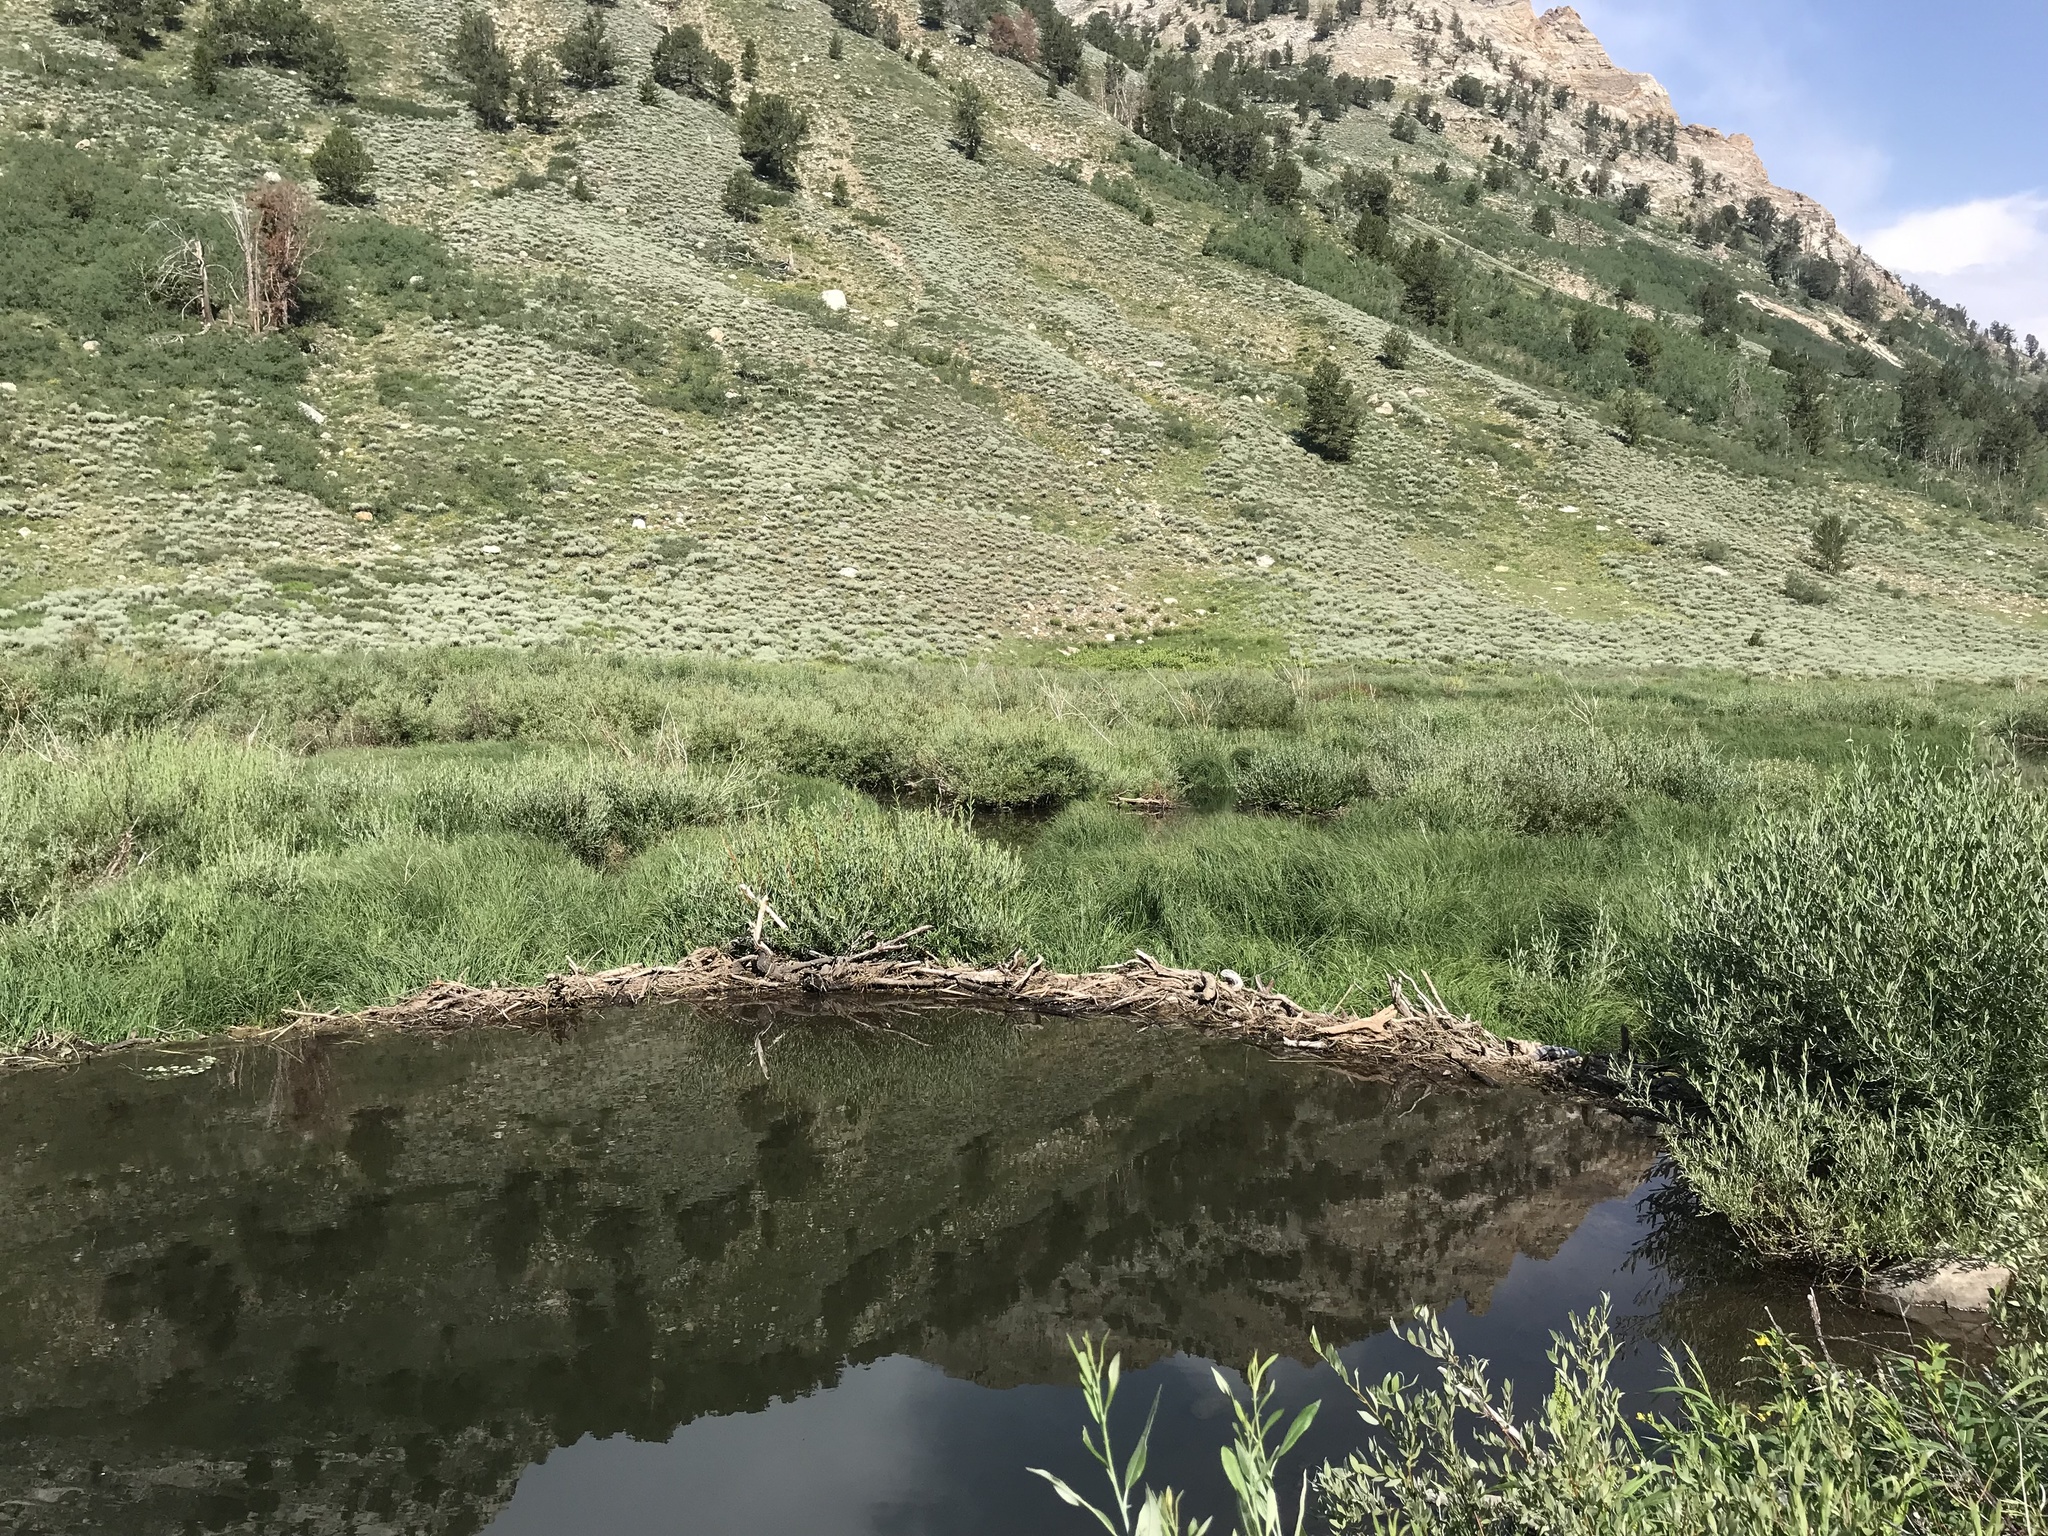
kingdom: Animalia
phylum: Chordata
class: Mammalia
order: Rodentia
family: Castoridae
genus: Castor
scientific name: Castor canadensis
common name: American beaver
